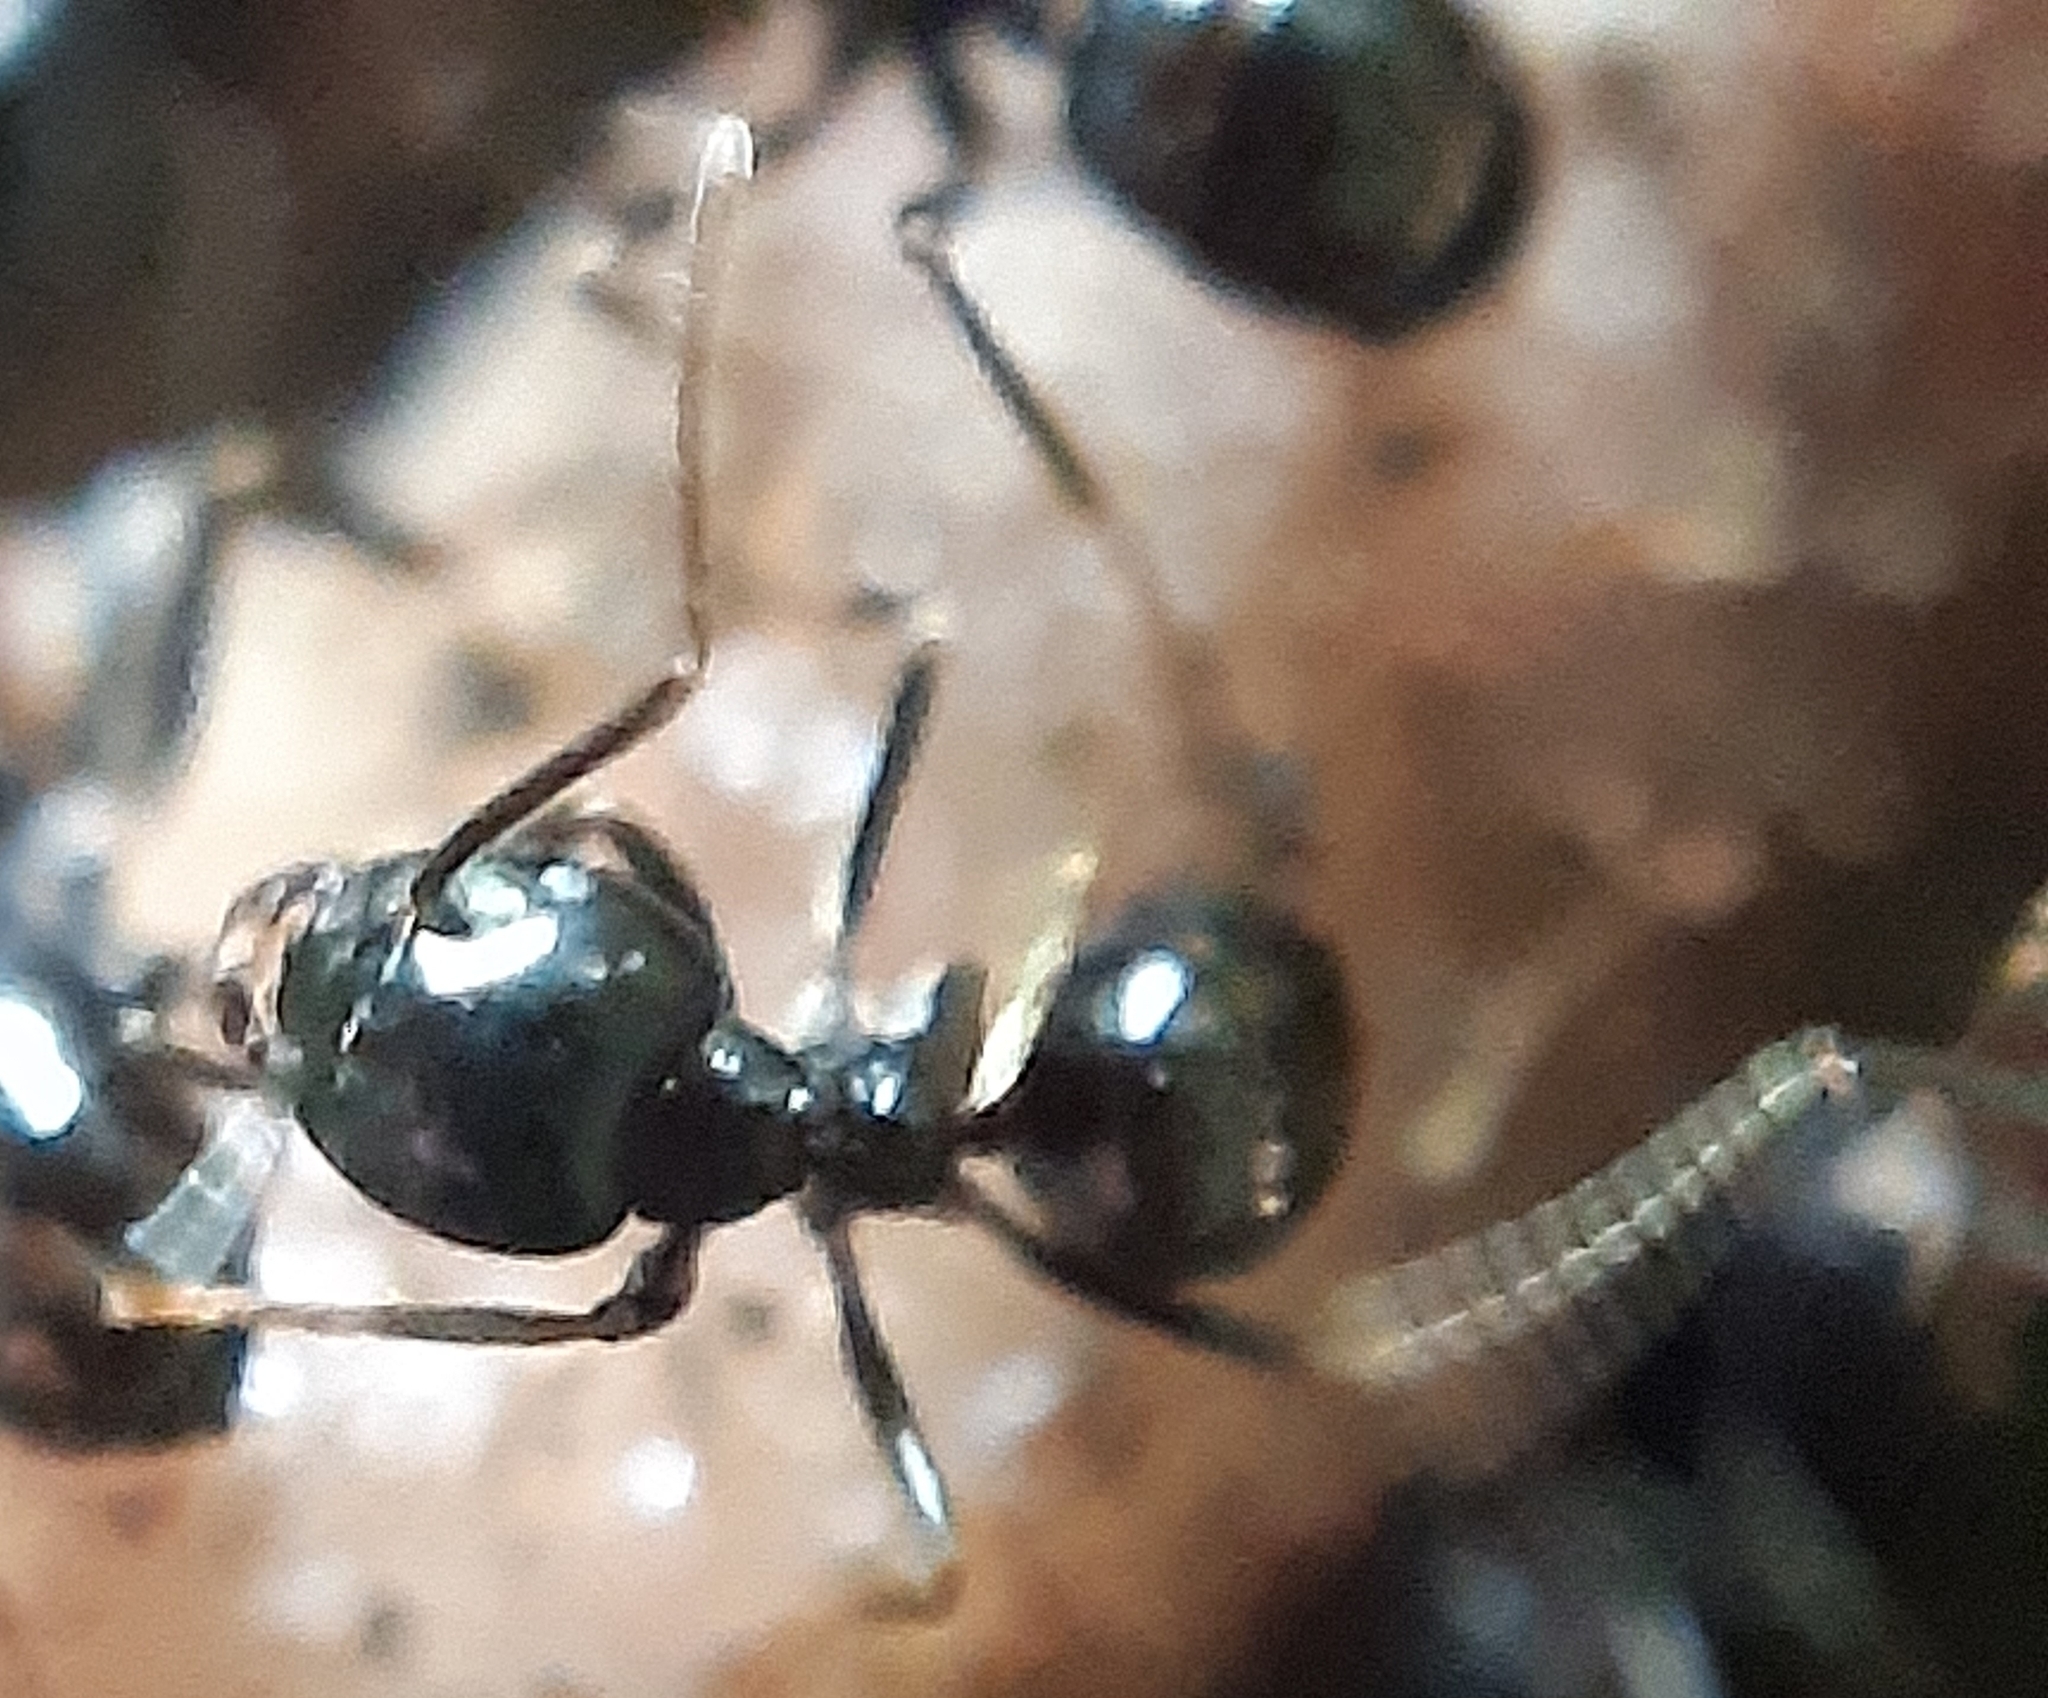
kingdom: Animalia
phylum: Arthropoda
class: Insecta
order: Hymenoptera
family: Formicidae
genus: Lasius
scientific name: Lasius fuliginosus
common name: Jet ant
